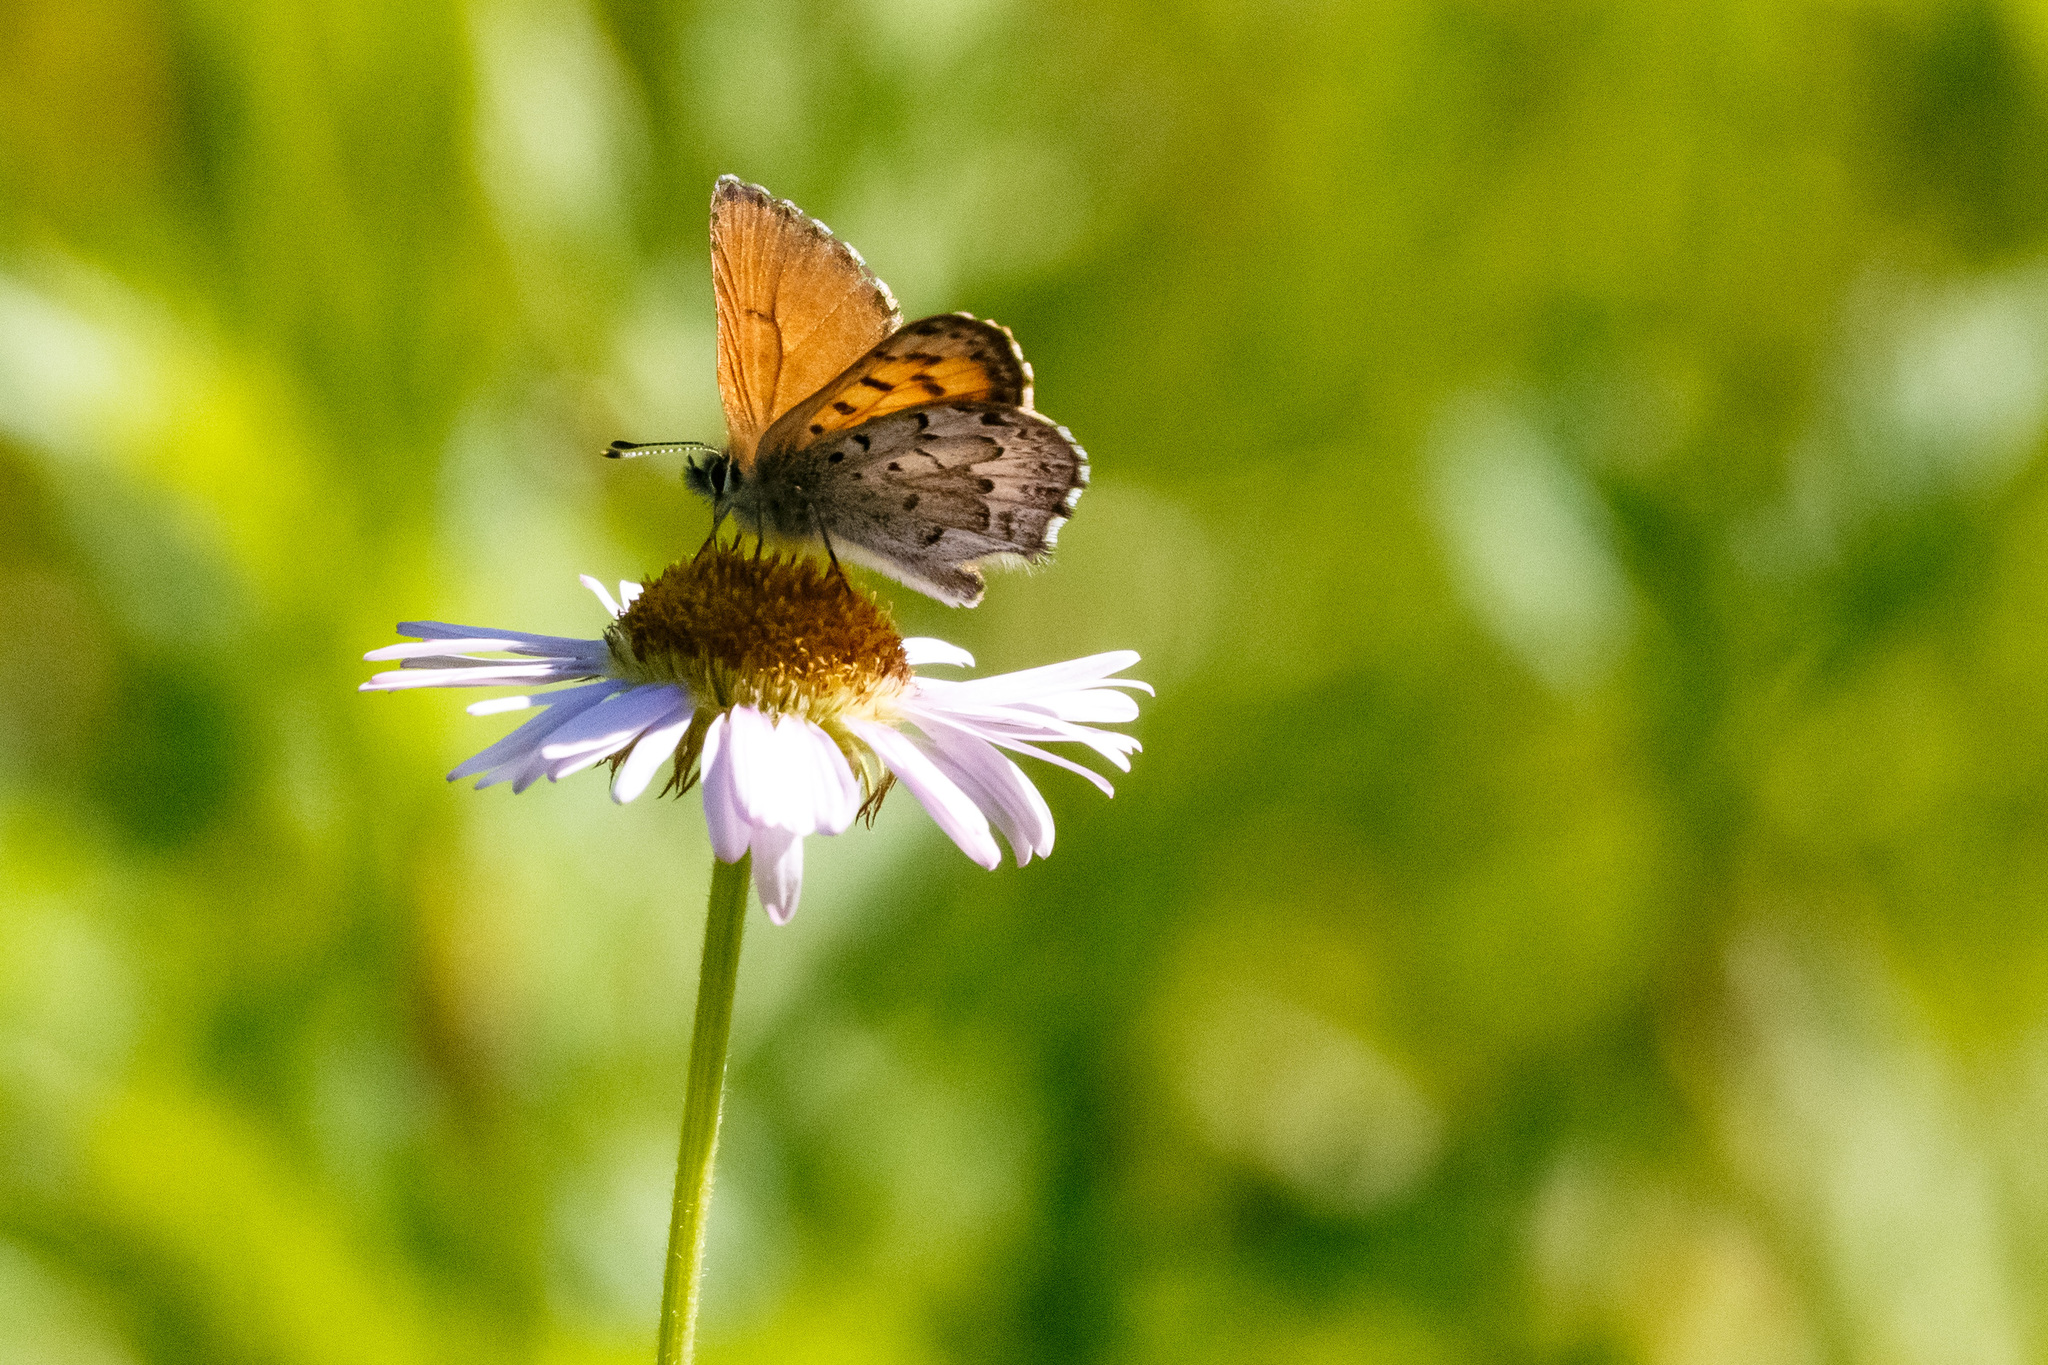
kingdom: Animalia
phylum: Arthropoda
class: Insecta
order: Lepidoptera
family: Lycaenidae
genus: Tharsalea
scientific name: Tharsalea mariposa
